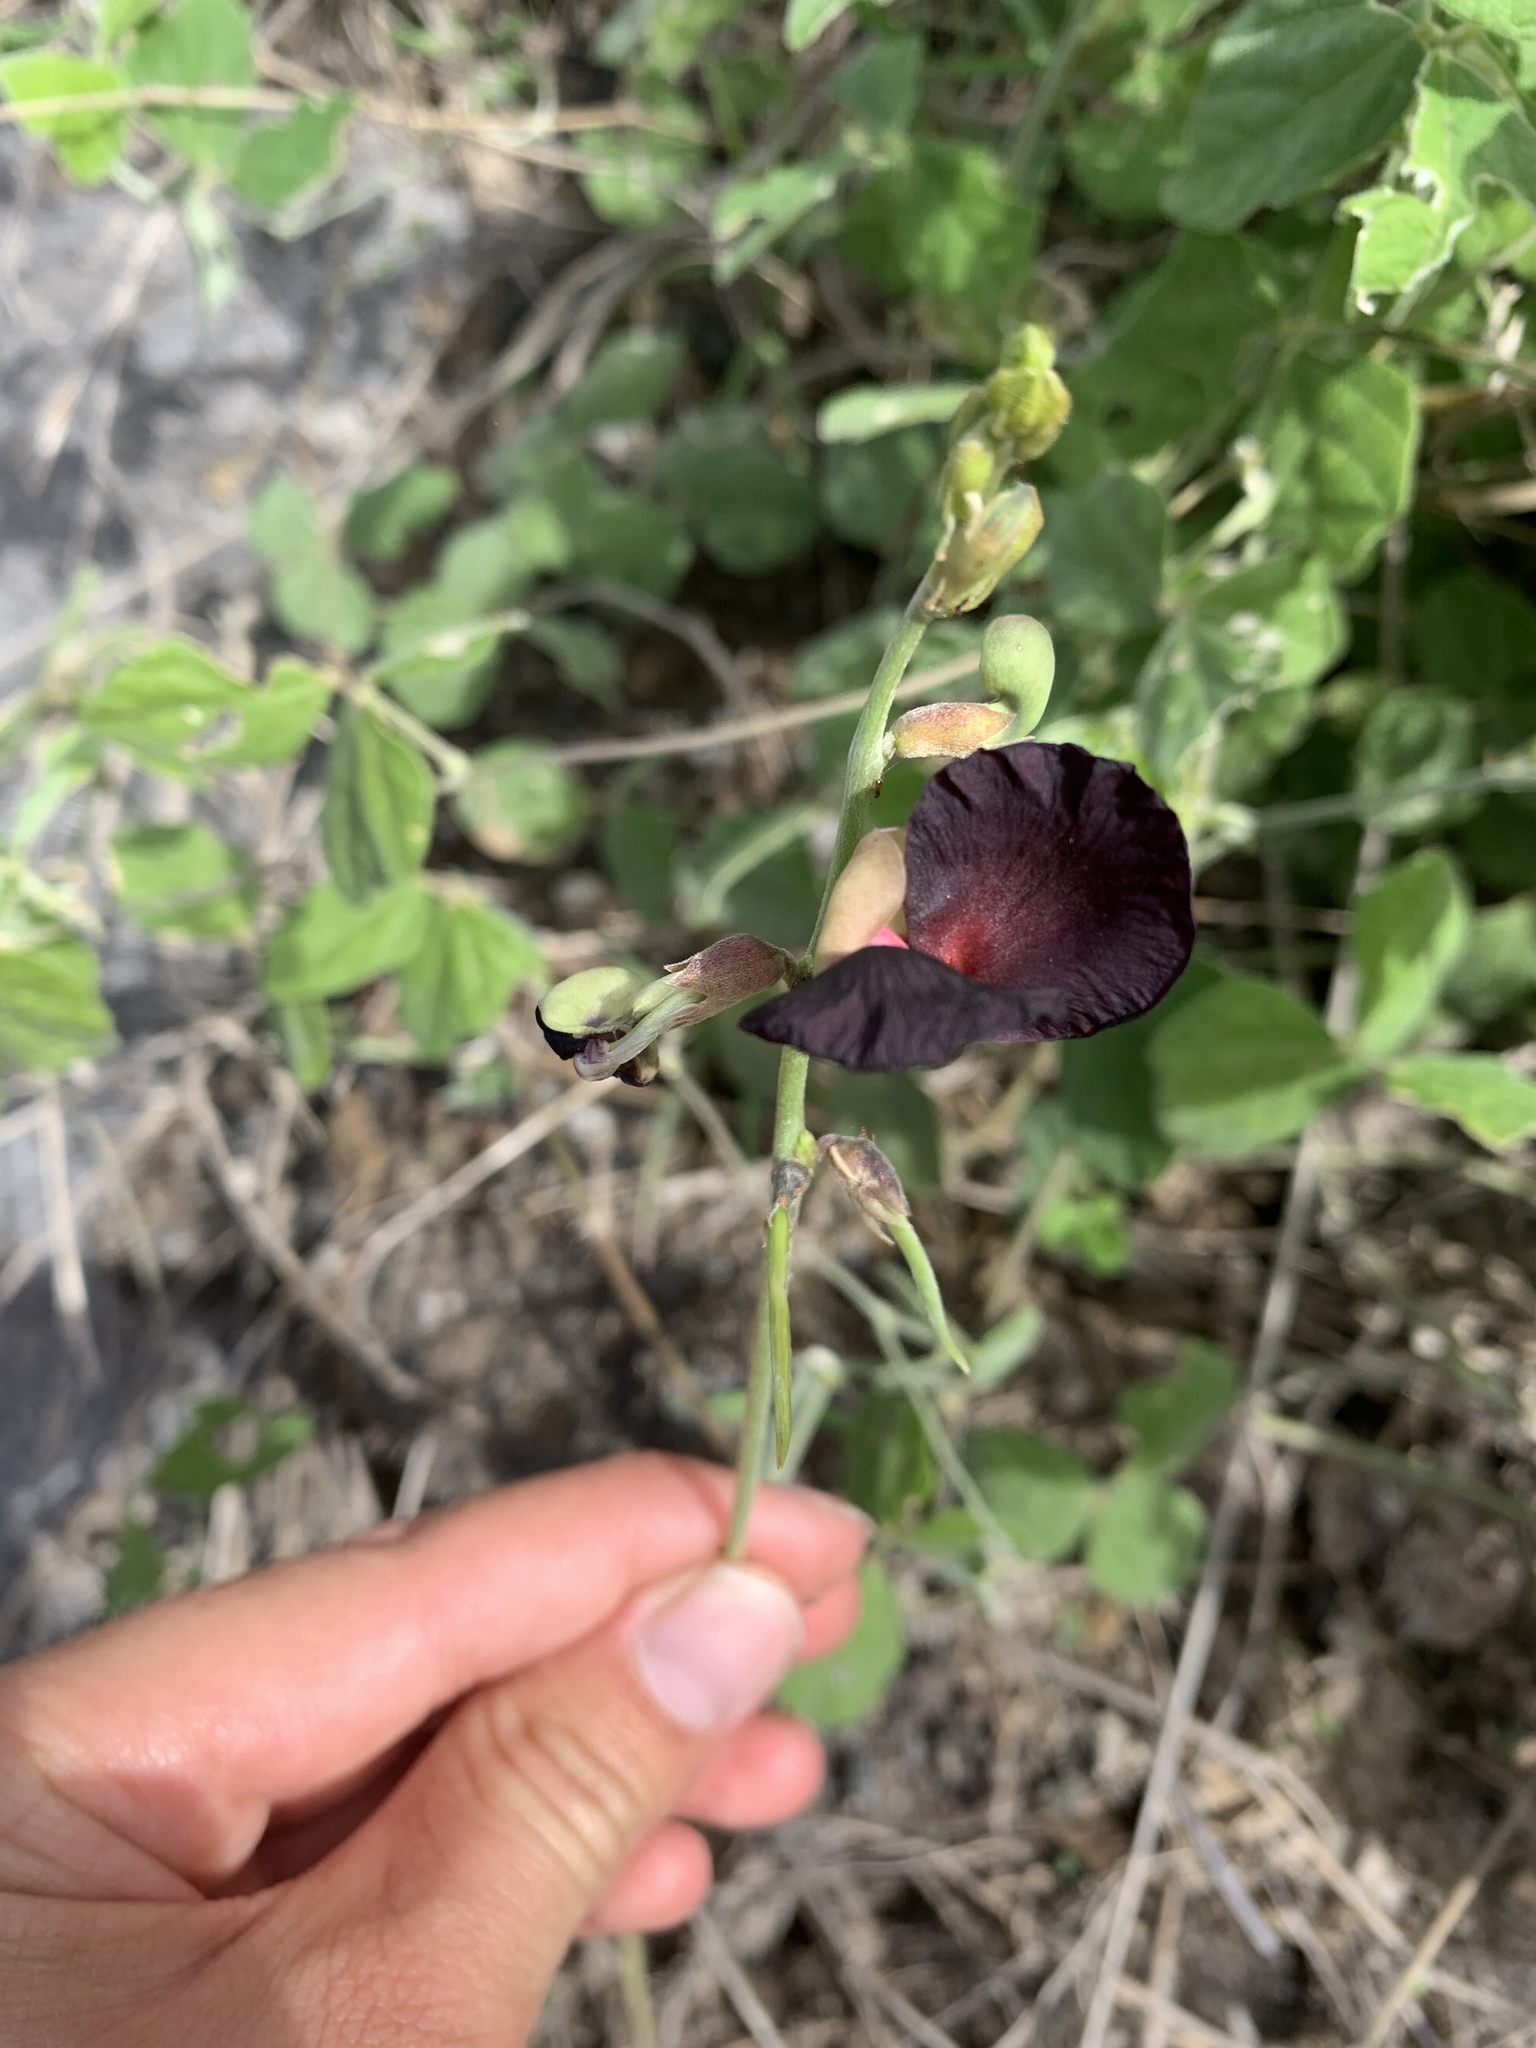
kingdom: Plantae
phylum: Tracheophyta
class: Magnoliopsida
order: Fabales
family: Fabaceae
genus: Macroptilium
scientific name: Macroptilium atropurpureum
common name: Purple bushbean
